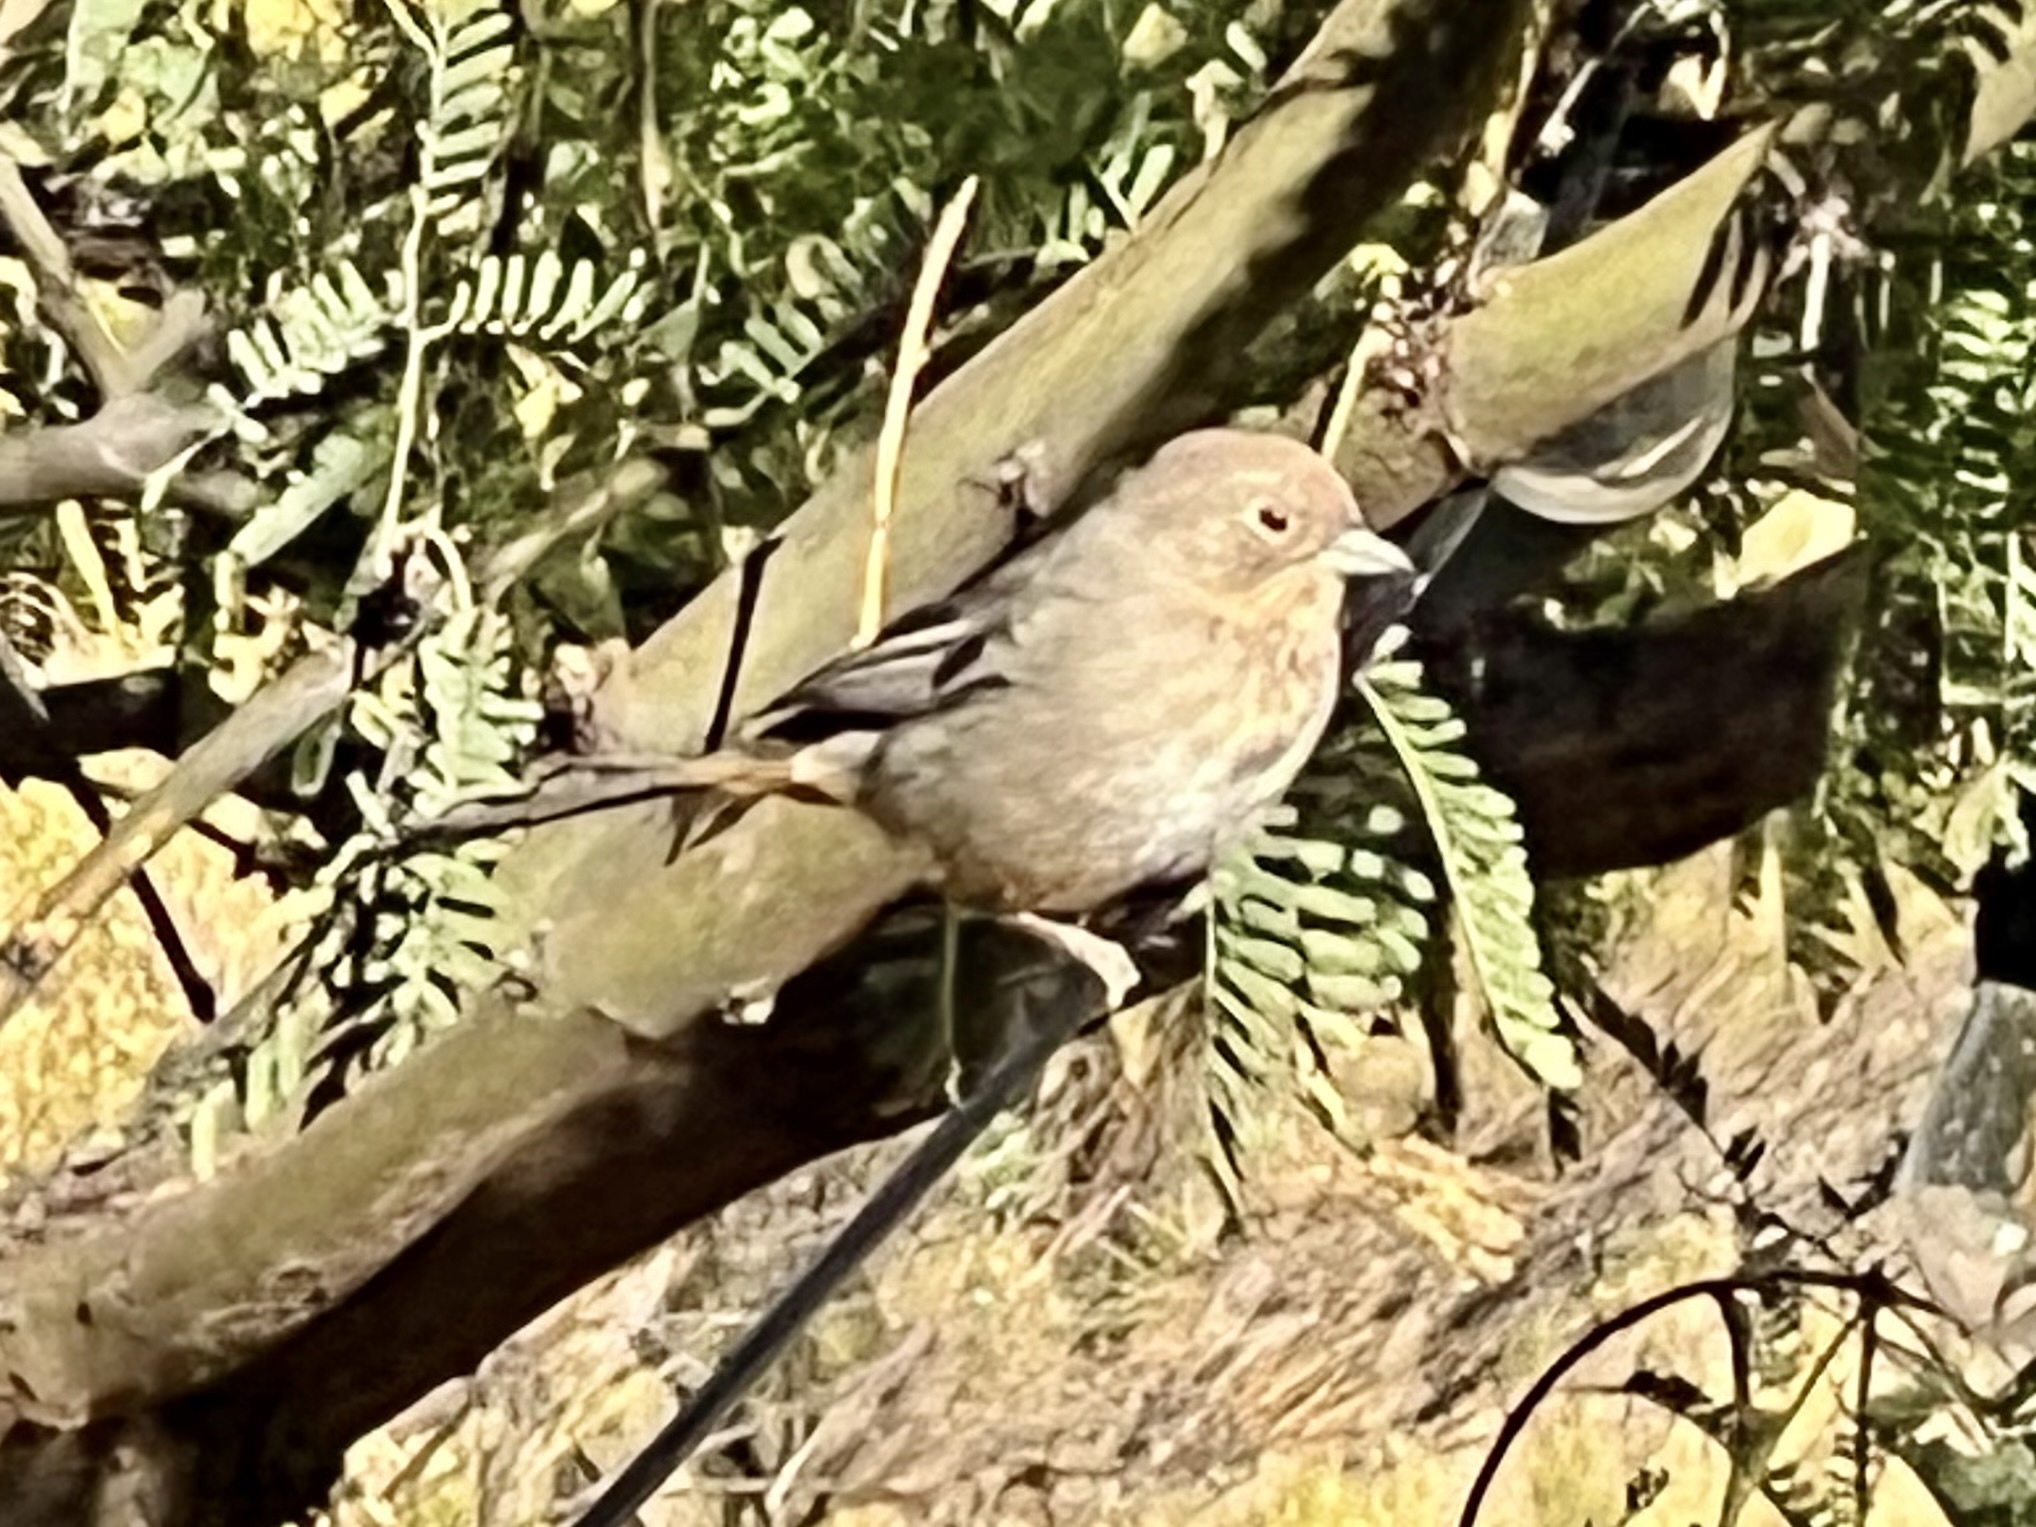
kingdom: Animalia
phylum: Chordata
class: Aves
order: Passeriformes
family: Passerellidae
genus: Melozone
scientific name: Melozone fusca
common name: Canyon towhee
